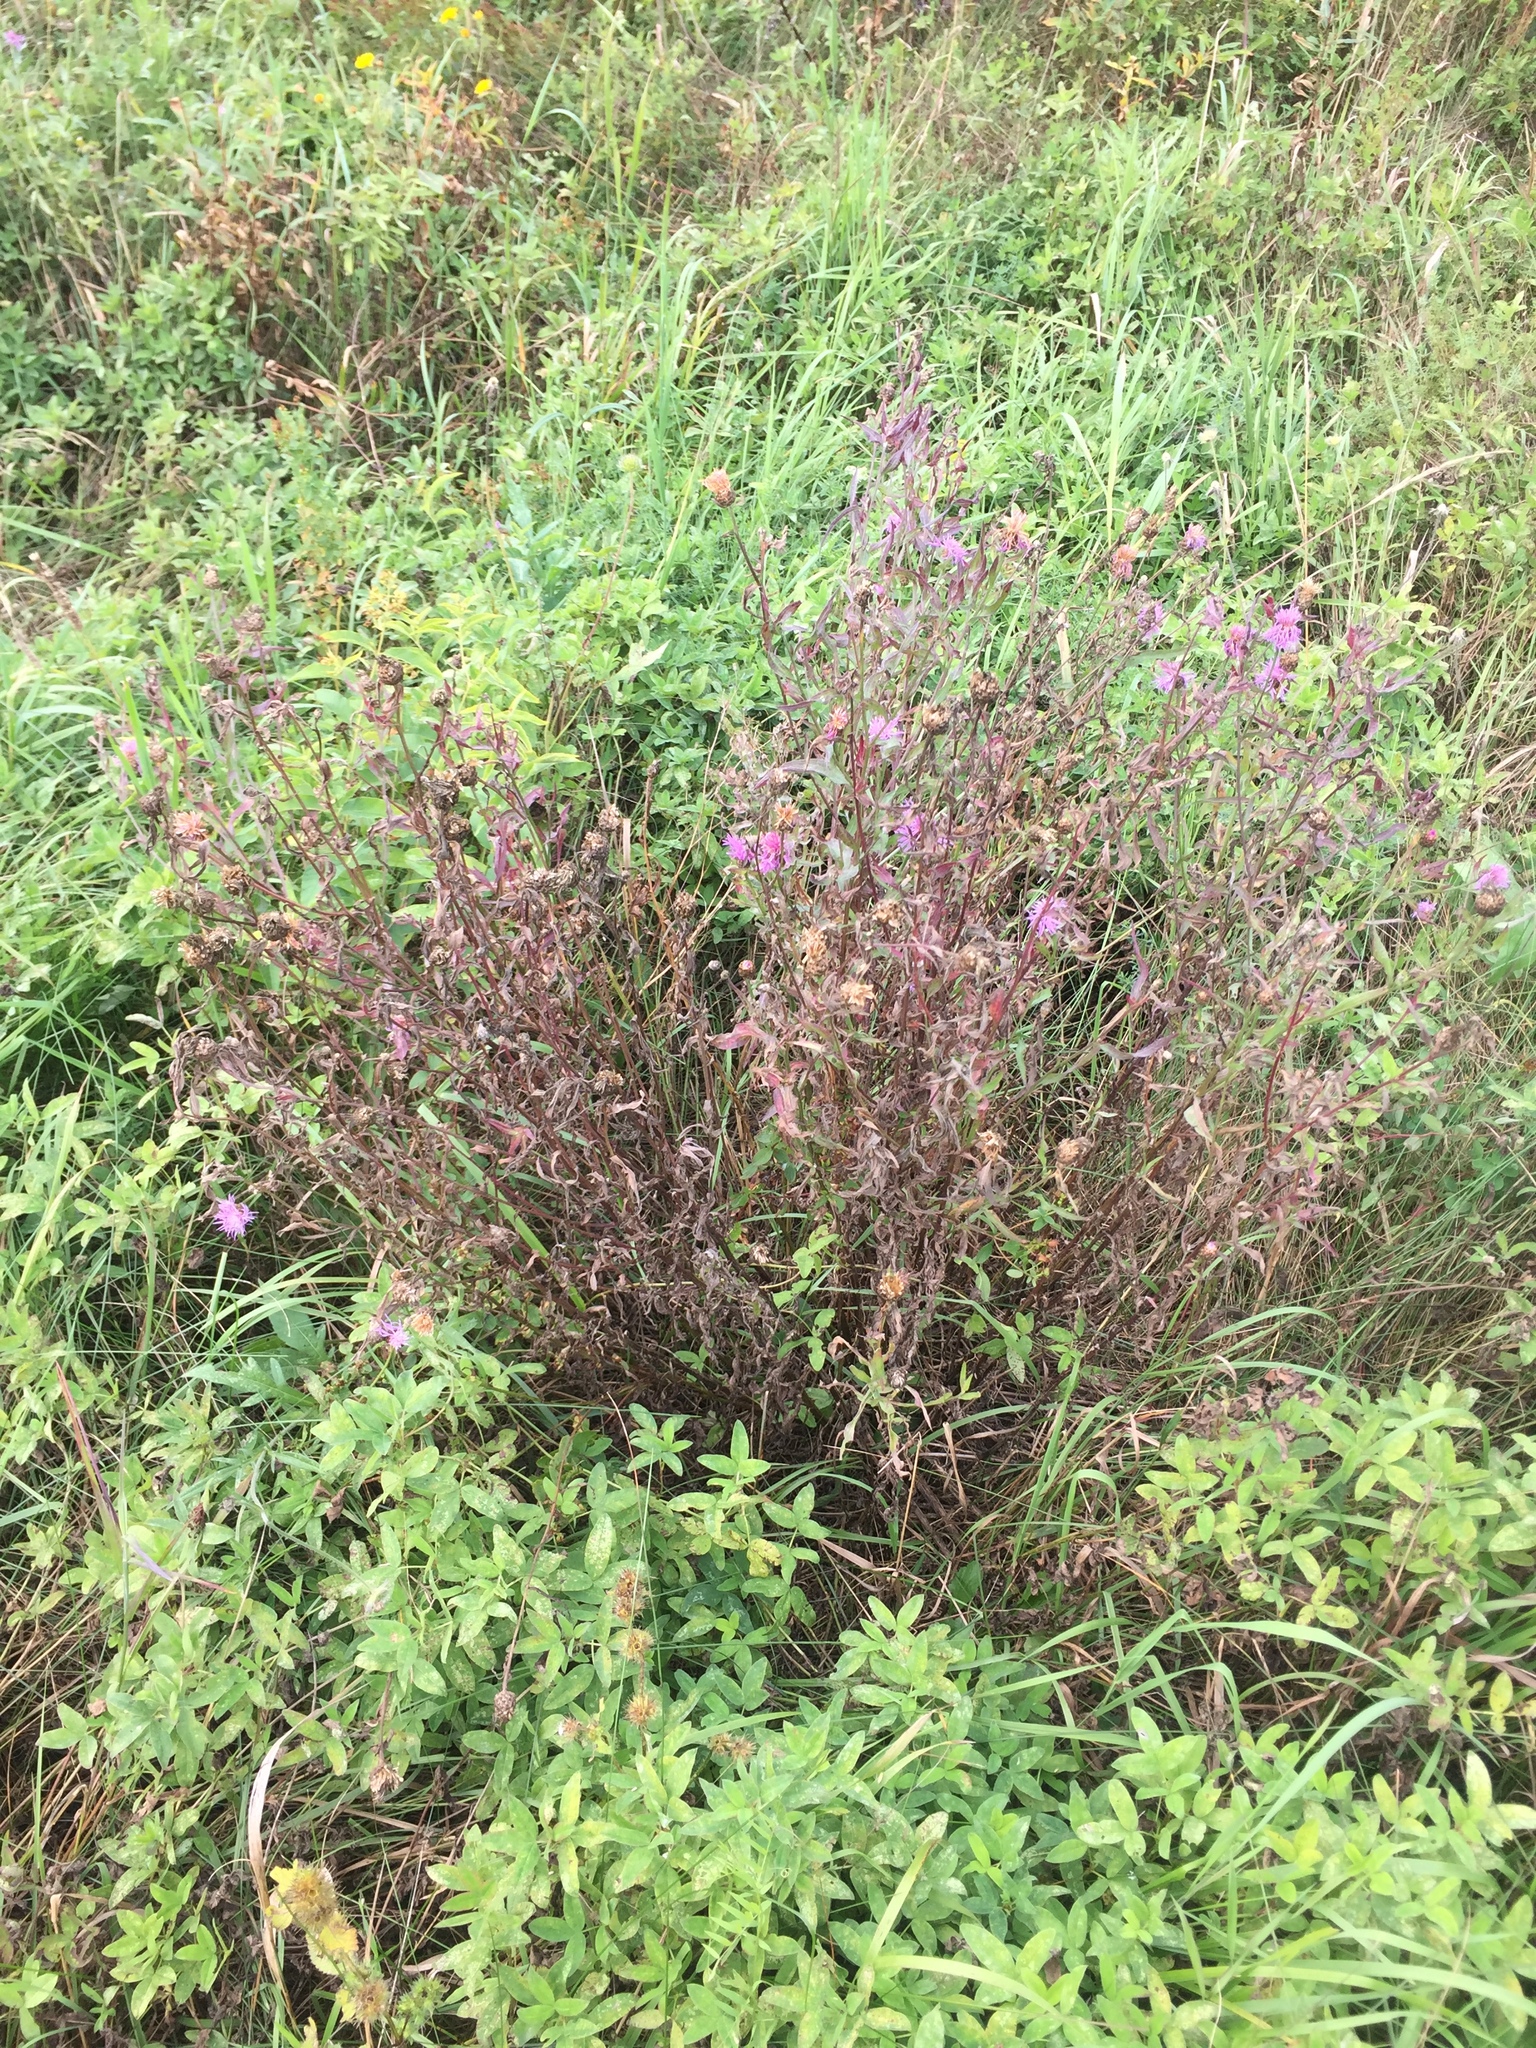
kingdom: Plantae
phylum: Tracheophyta
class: Magnoliopsida
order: Asterales
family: Asteraceae
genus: Centaurea
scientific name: Centaurea jacea
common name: Brown knapweed
